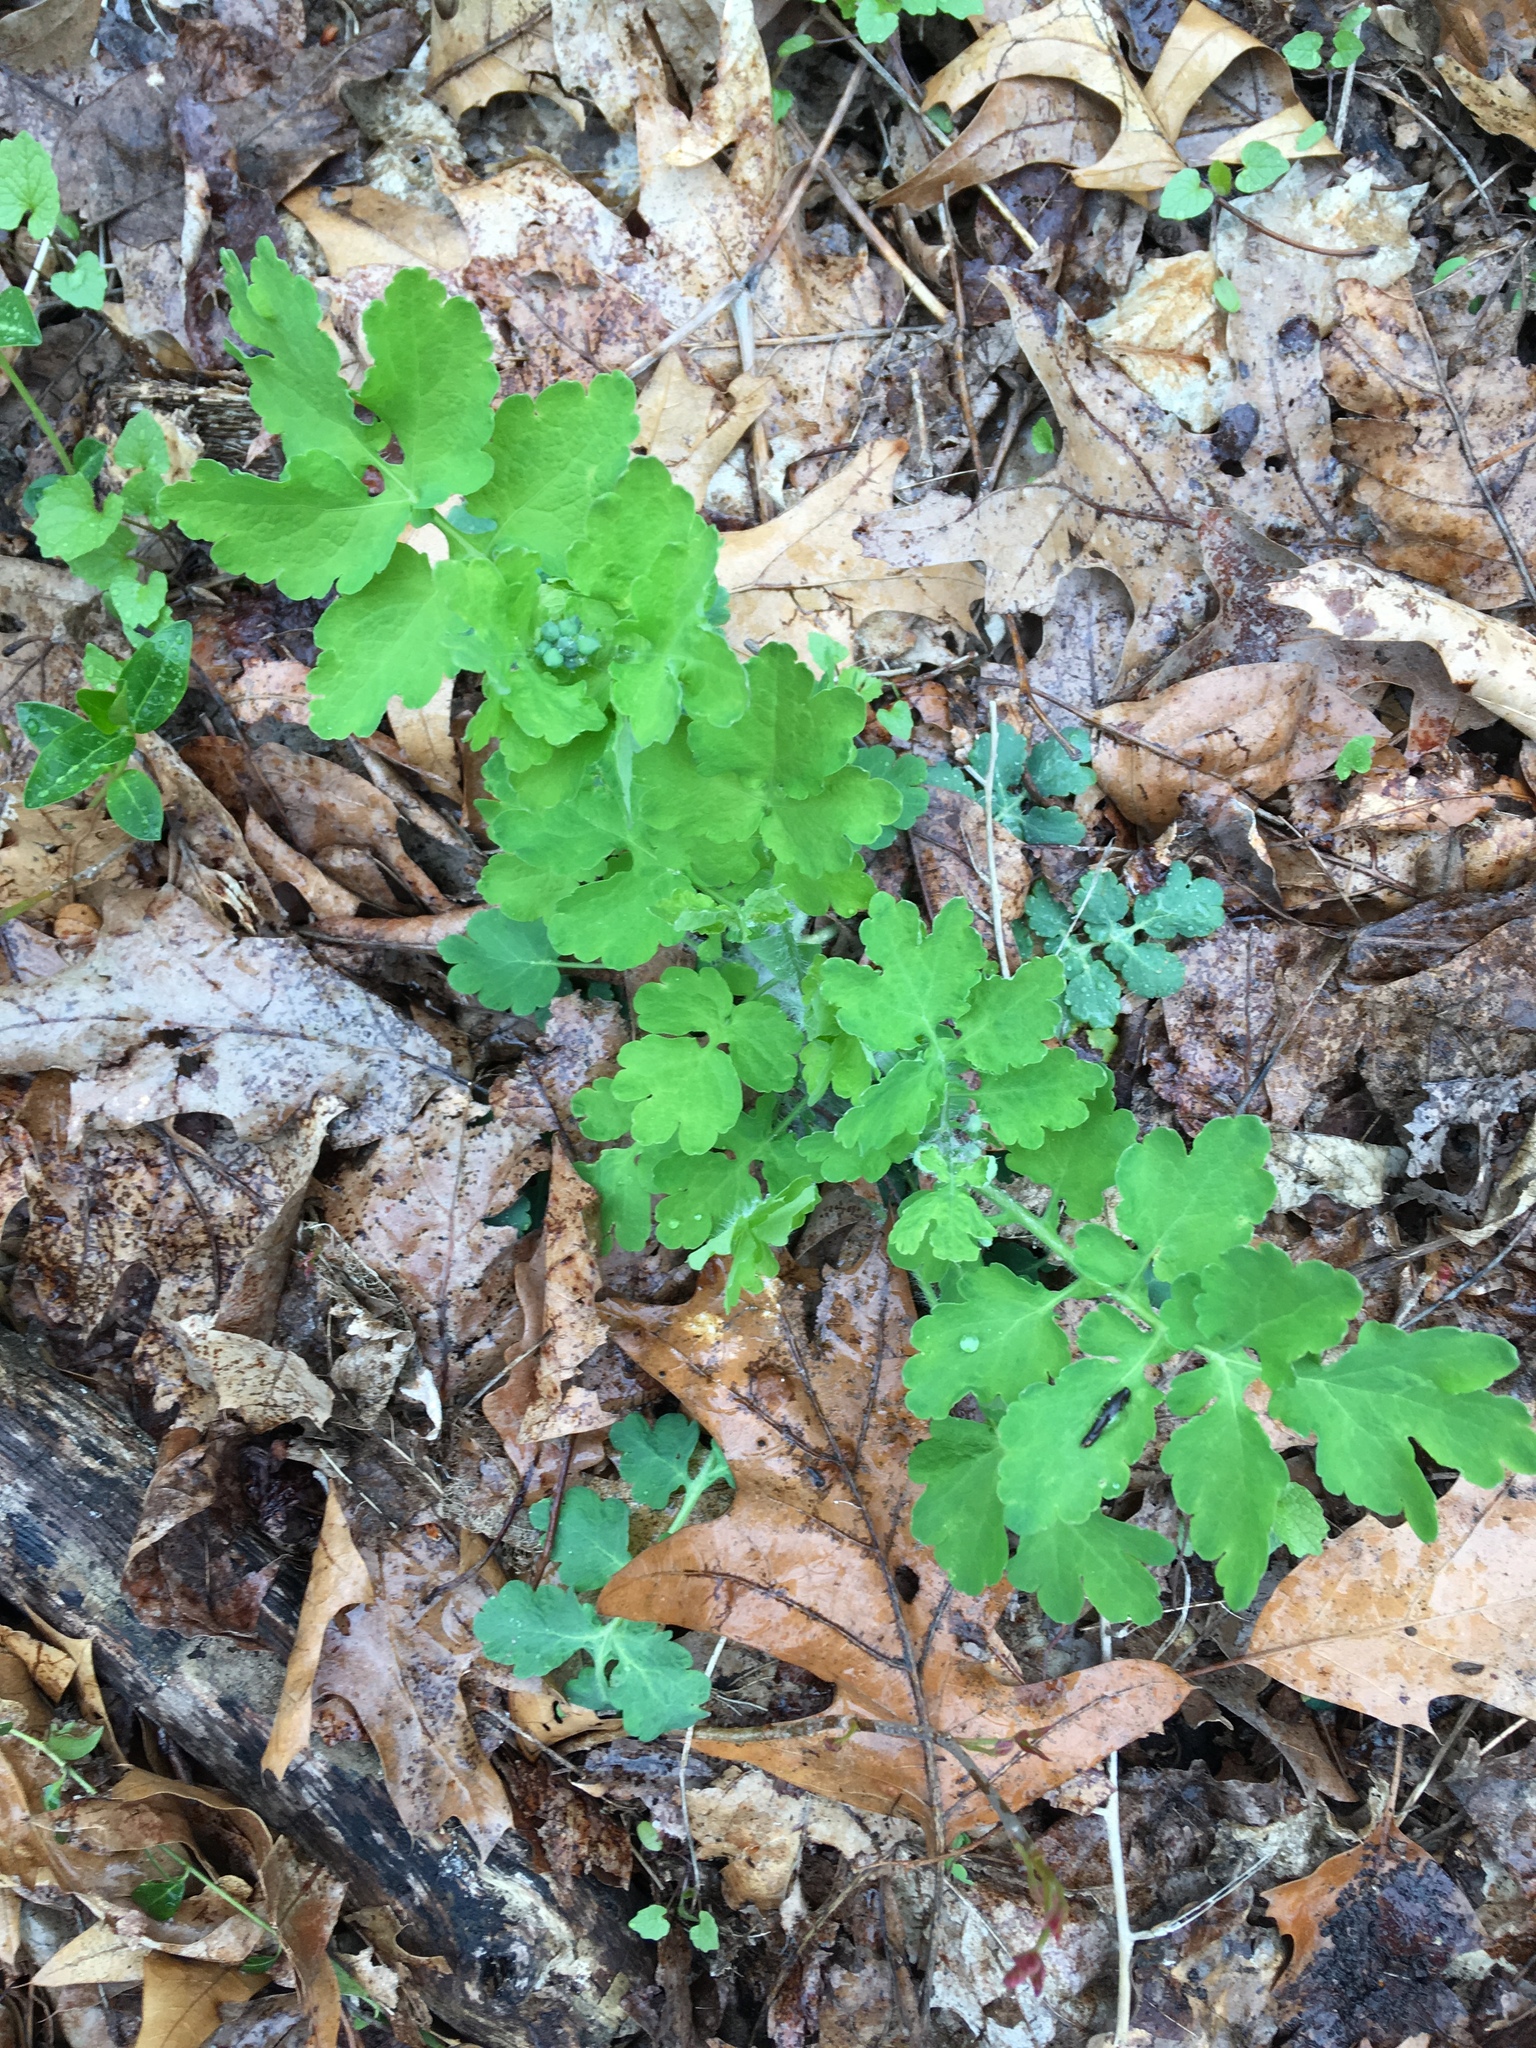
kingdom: Plantae
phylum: Tracheophyta
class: Magnoliopsida
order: Ranunculales
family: Papaveraceae
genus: Stylophorum
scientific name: Stylophorum diphyllum
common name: Celandine poppy
